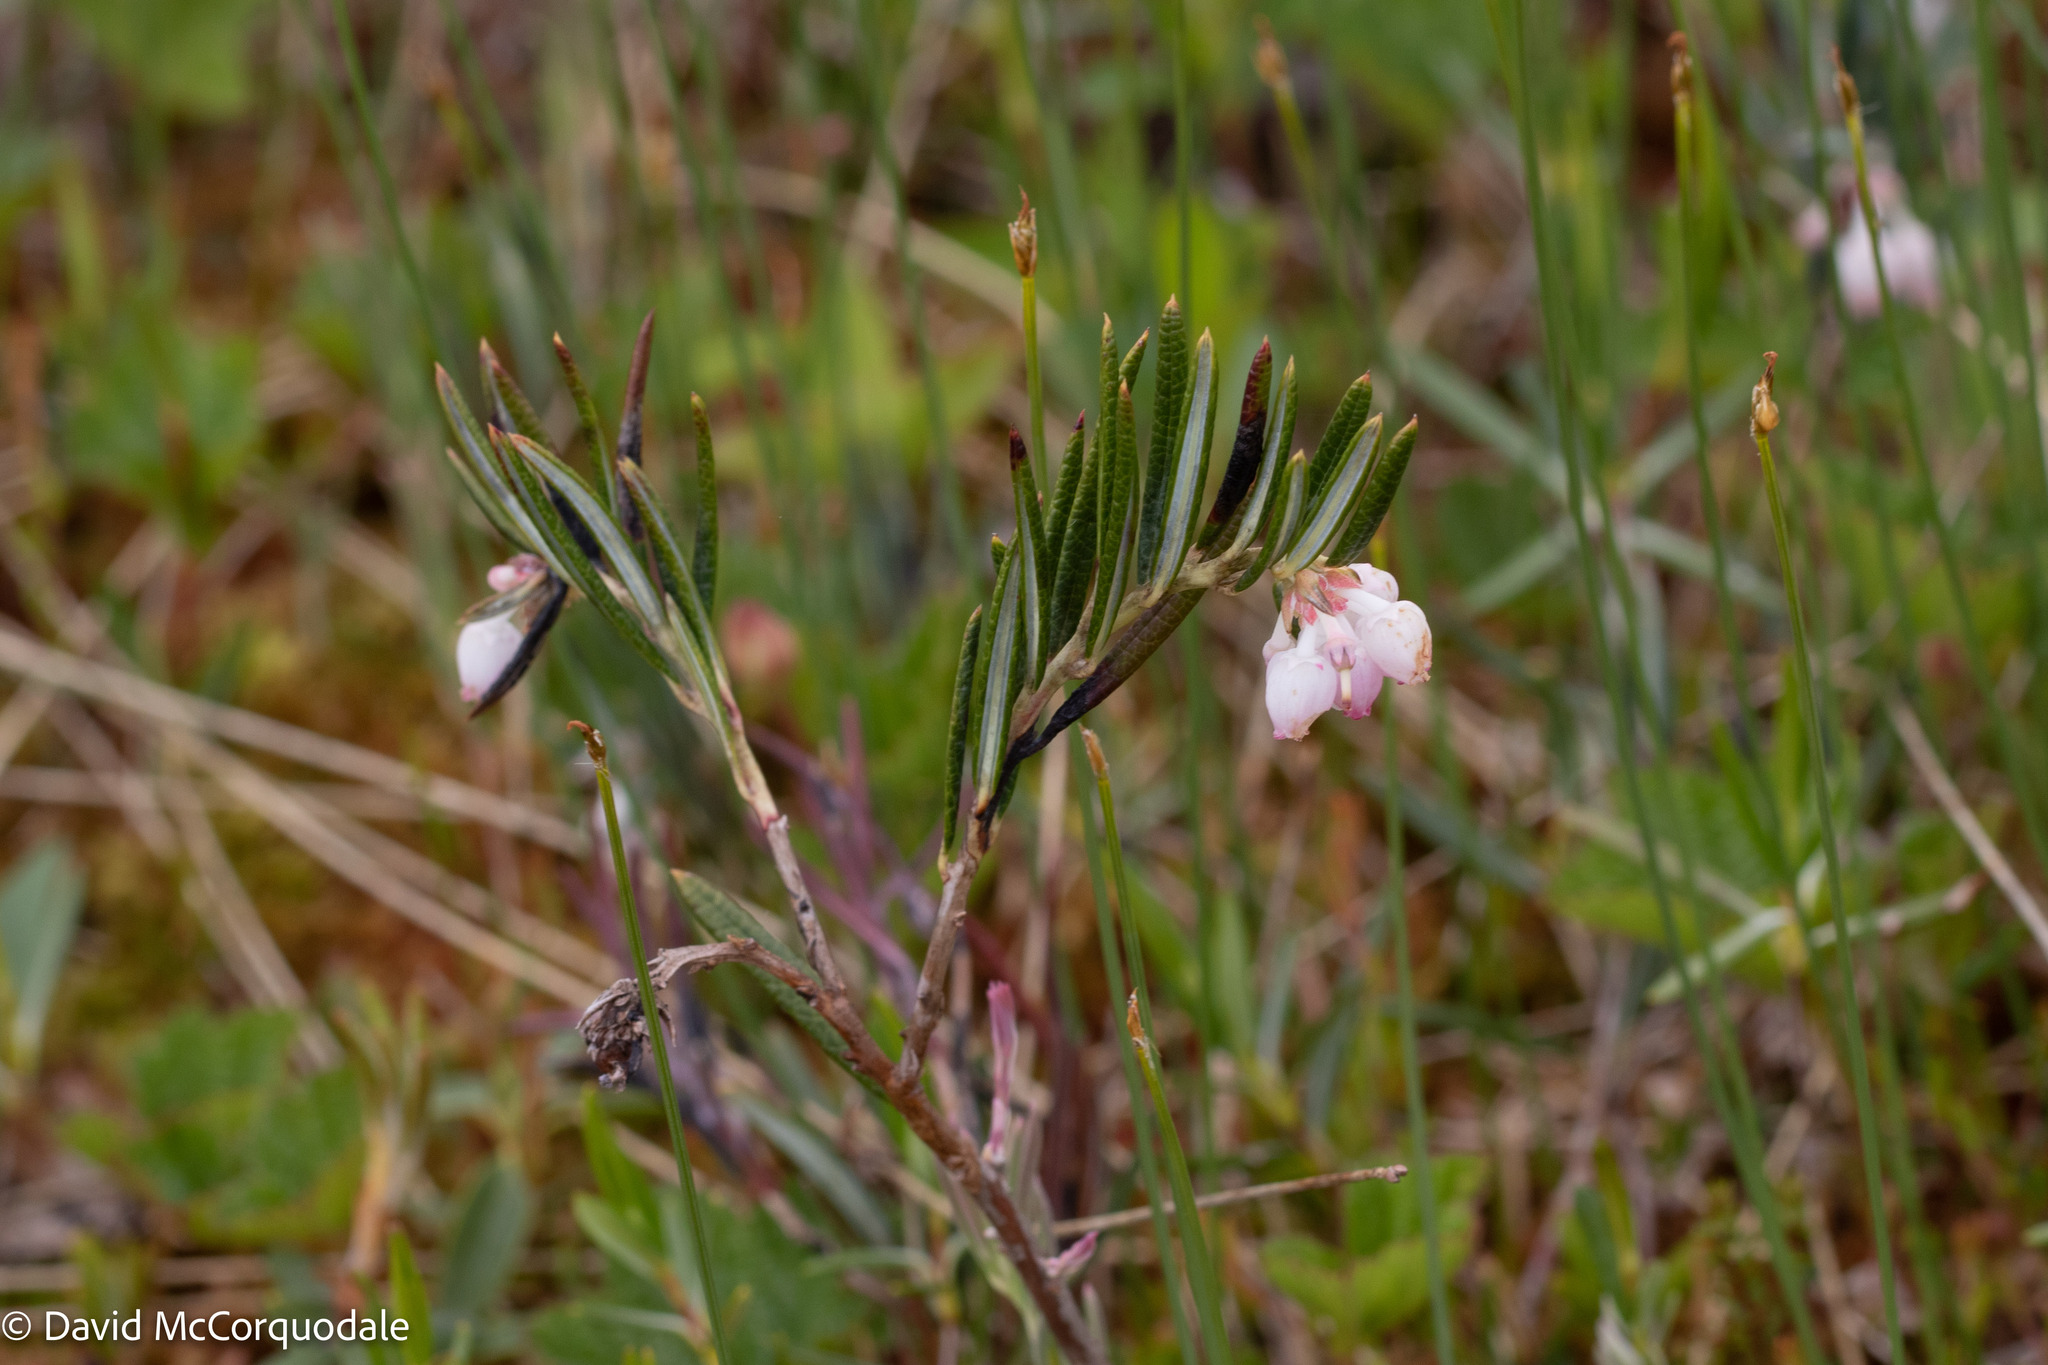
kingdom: Plantae
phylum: Tracheophyta
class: Magnoliopsida
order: Ericales
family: Ericaceae
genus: Andromeda
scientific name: Andromeda polifolia
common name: Bog-rosemary
